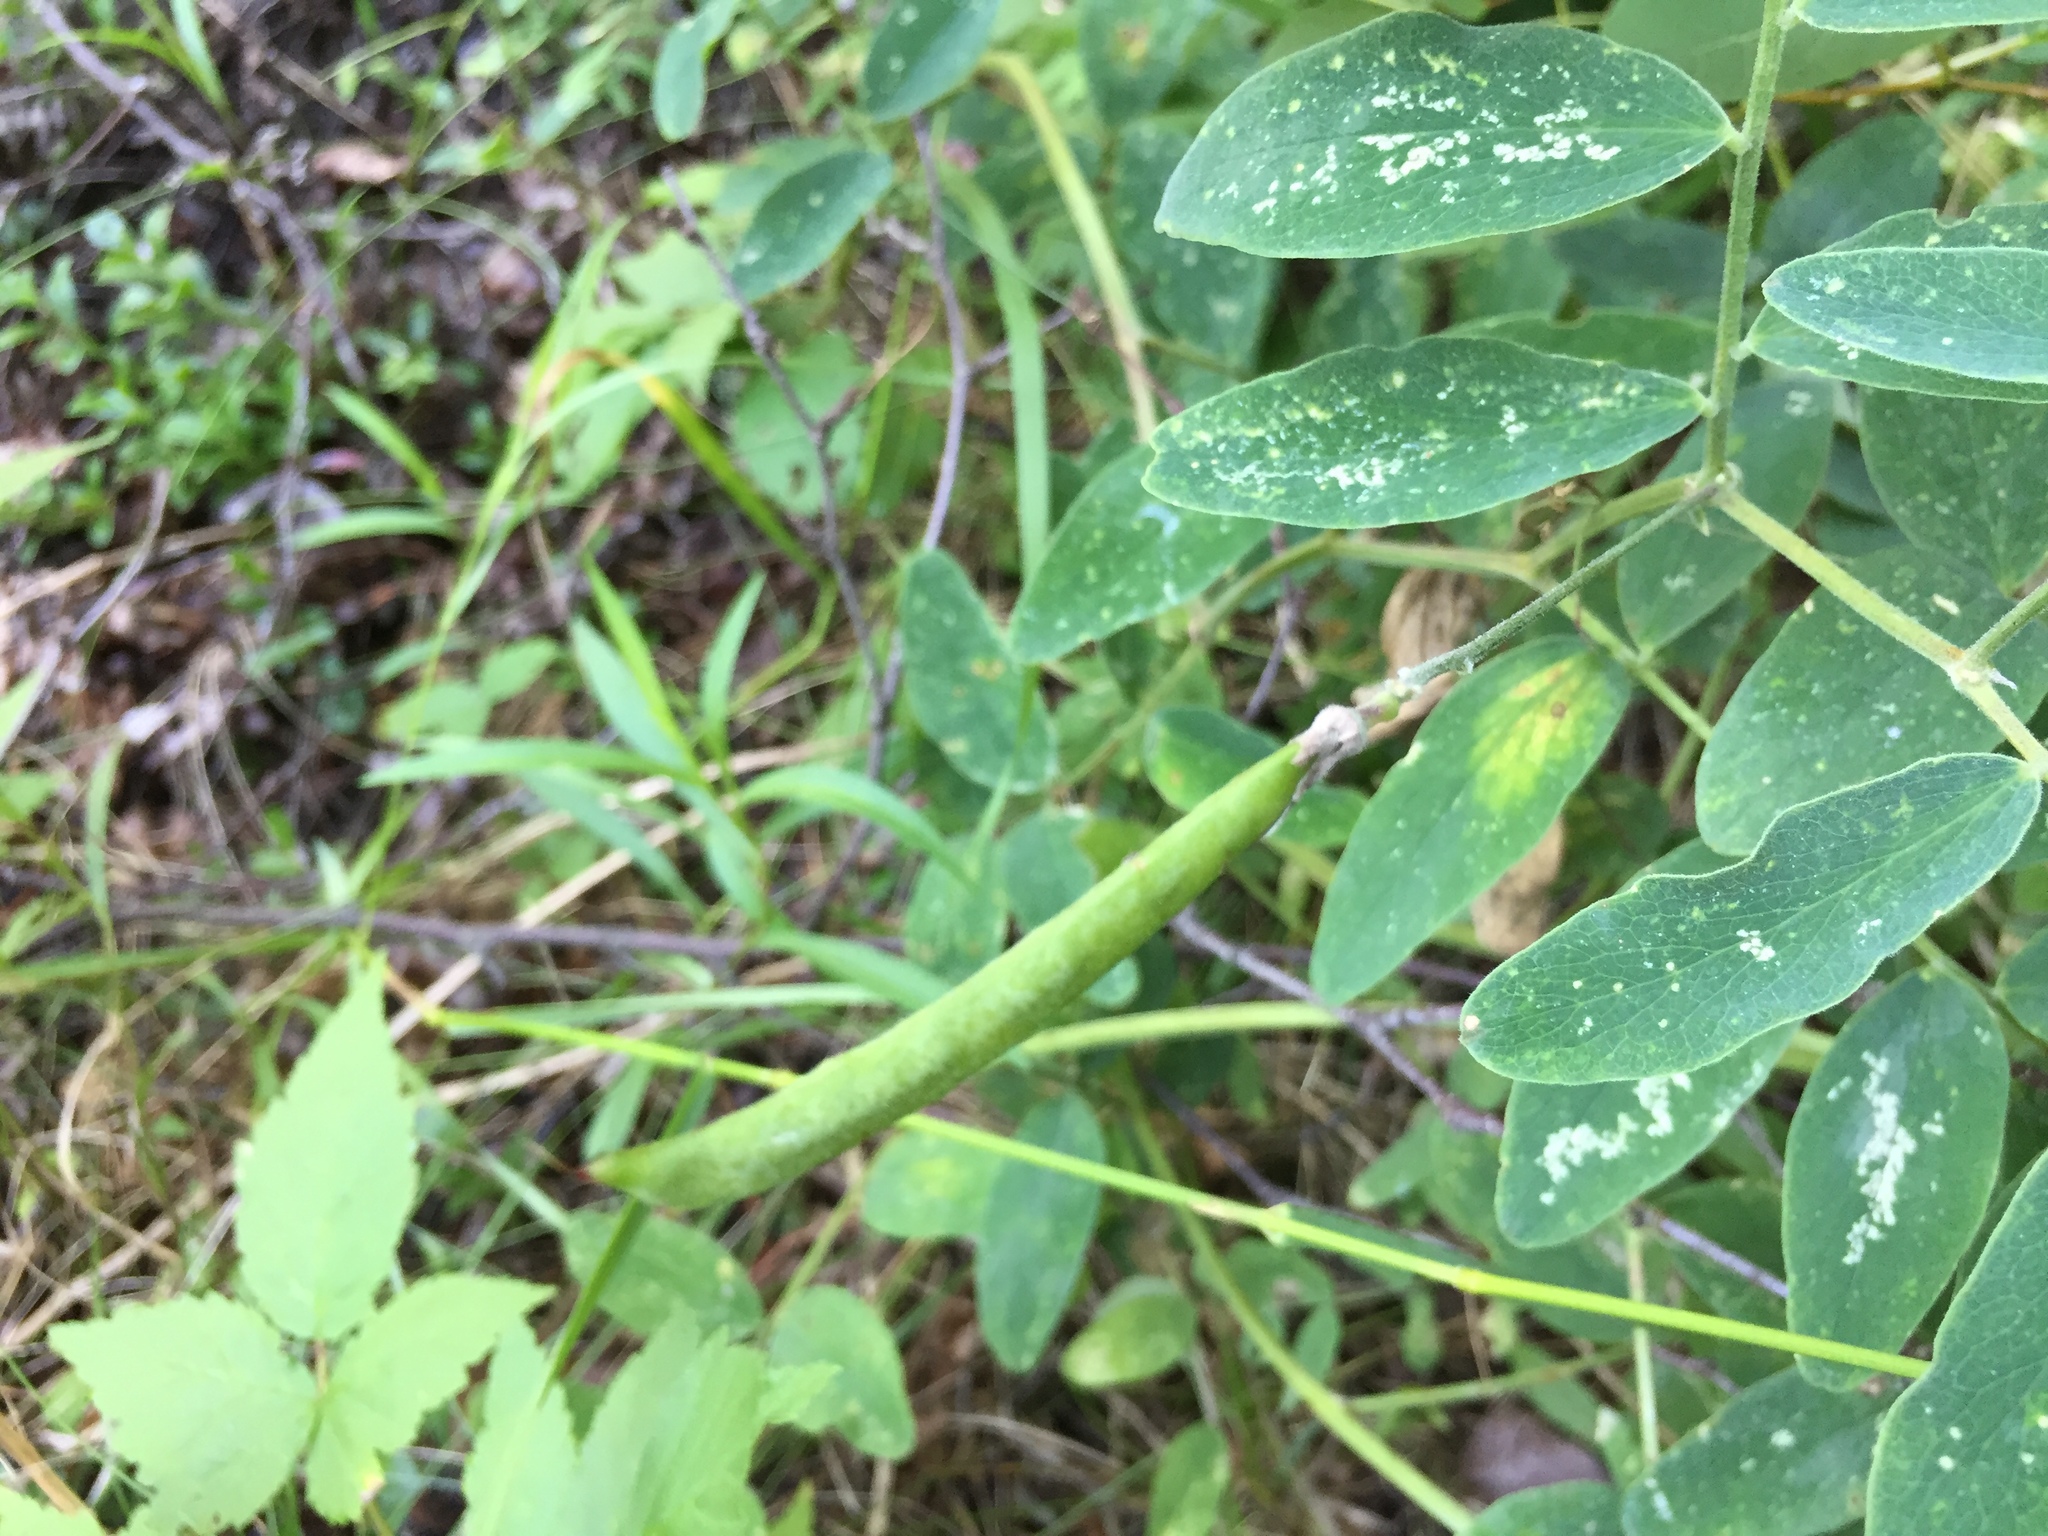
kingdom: Plantae
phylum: Tracheophyta
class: Magnoliopsida
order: Fabales
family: Fabaceae
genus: Lathyrus
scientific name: Lathyrus venosus
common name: Forest-pea
